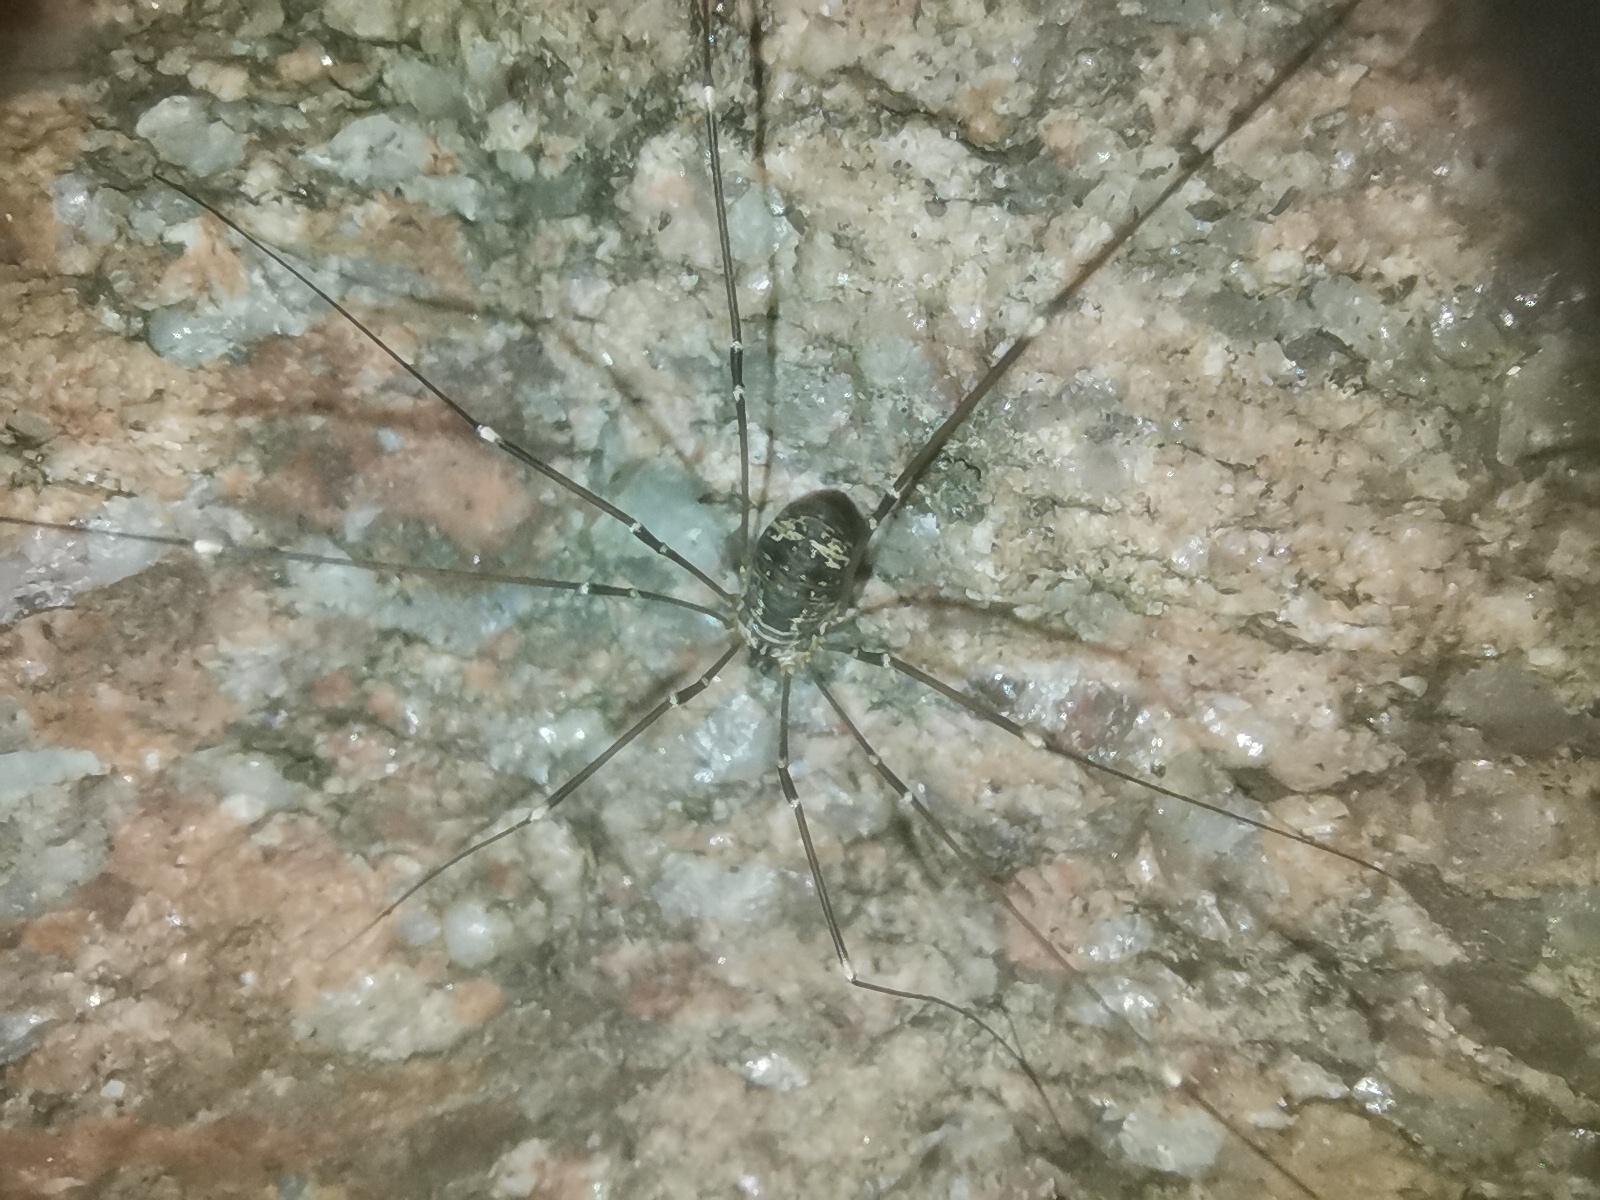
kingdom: Animalia
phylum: Arthropoda
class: Arachnida
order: Opiliones
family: Sclerosomatidae
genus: Leiobunum
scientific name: Leiobunum gracile
